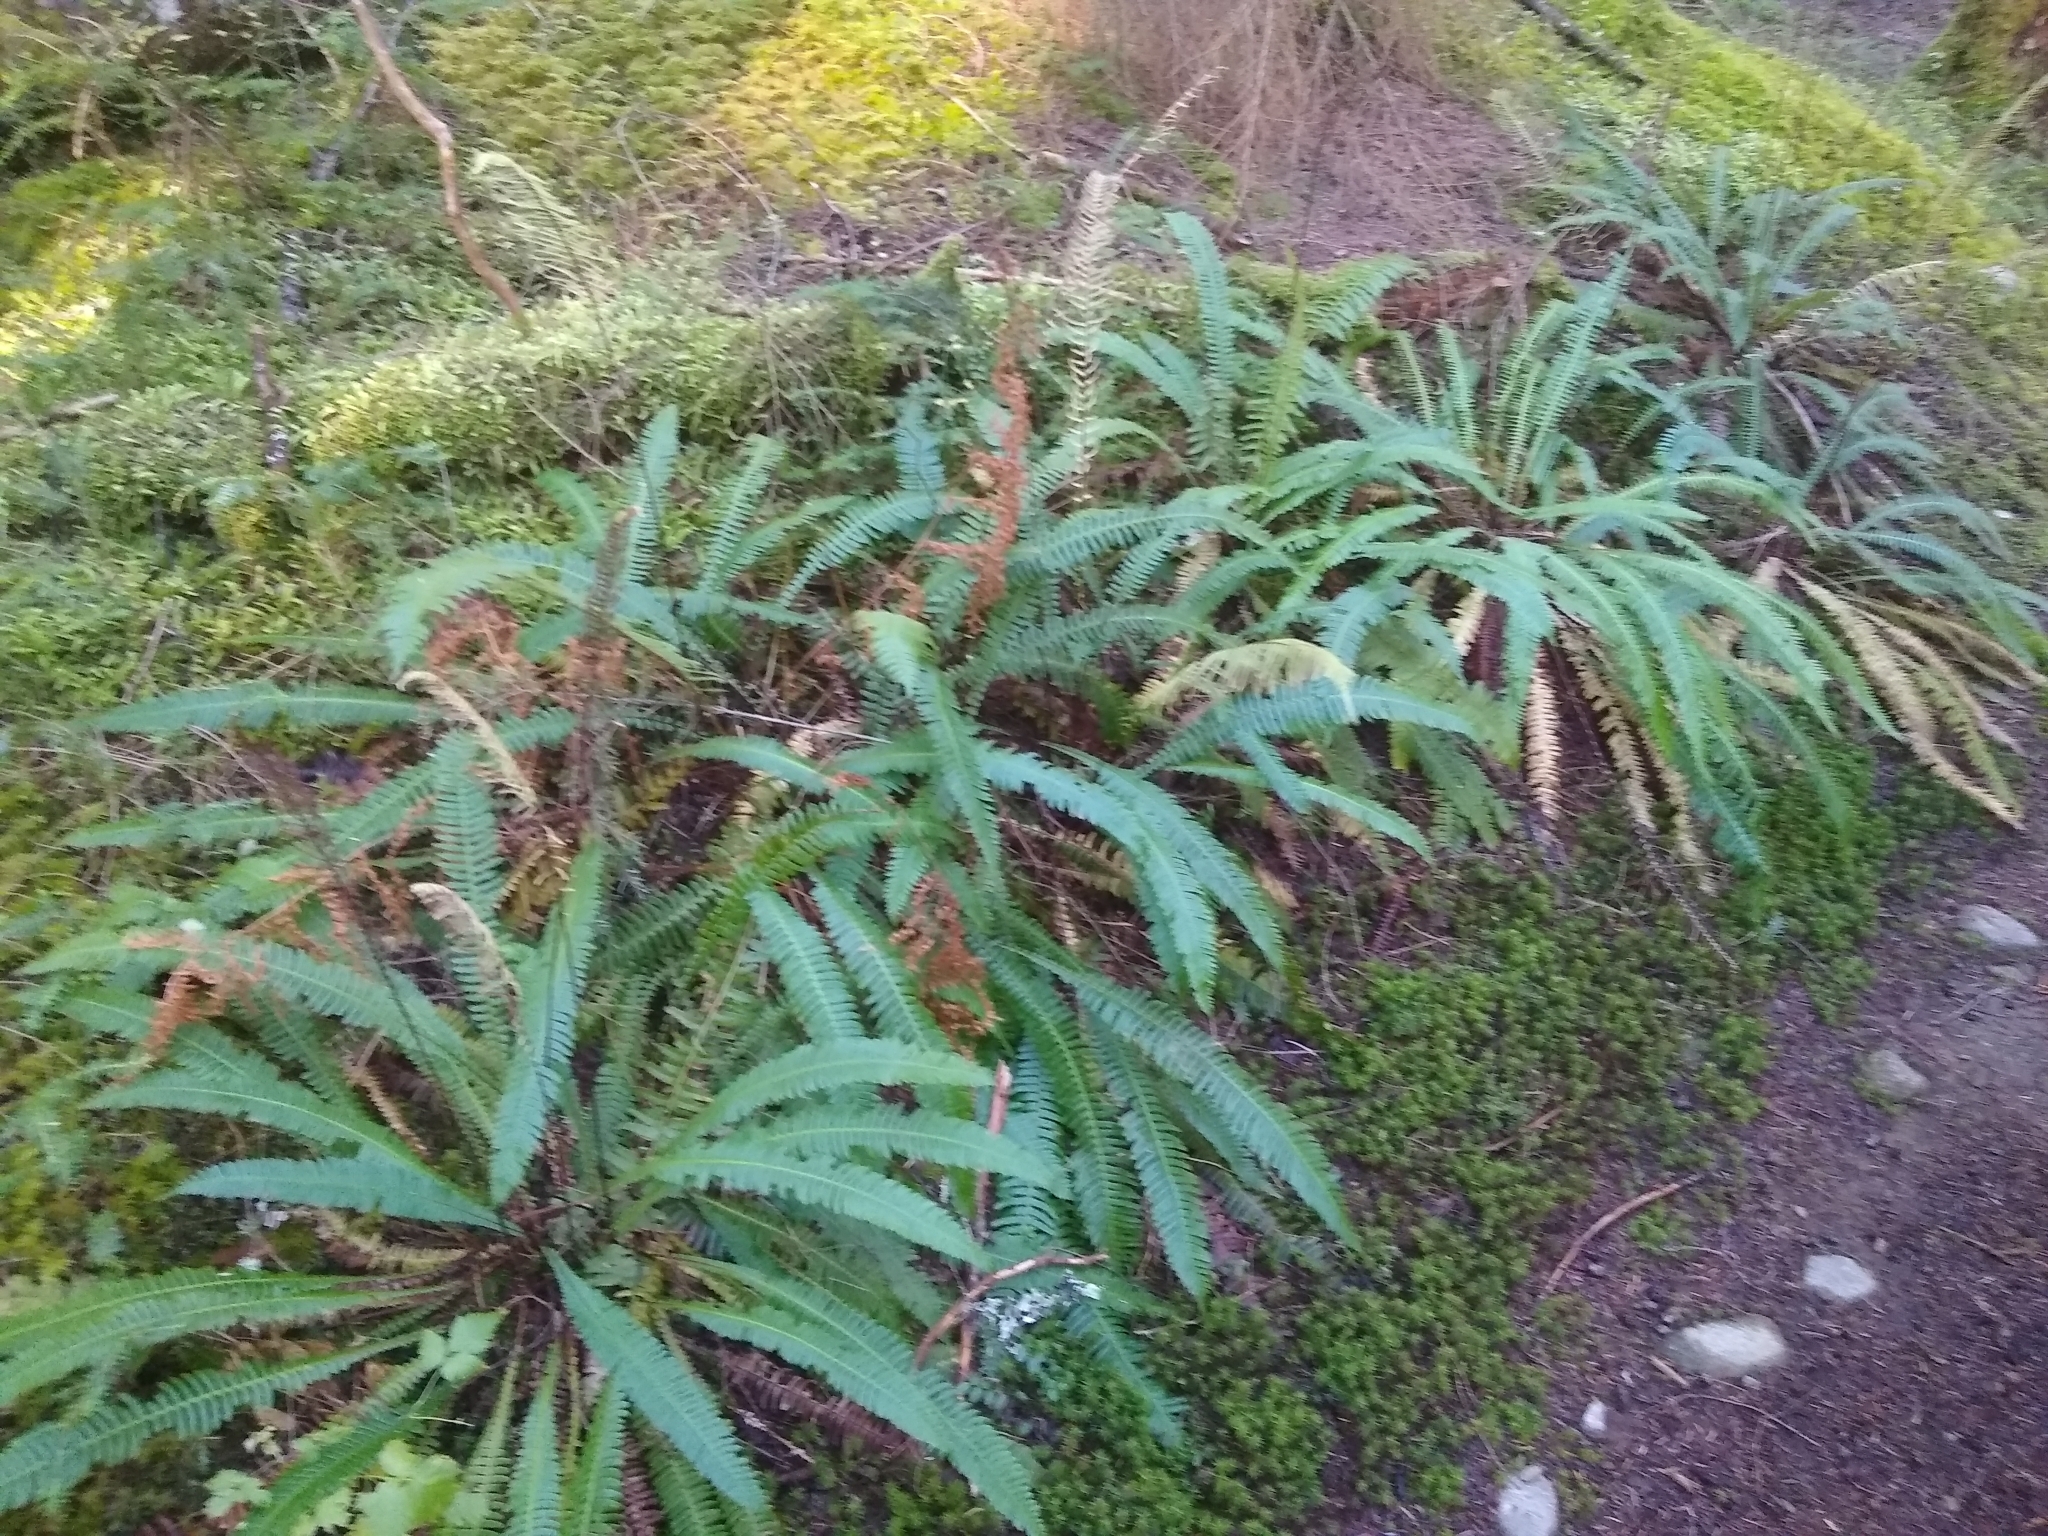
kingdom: Plantae
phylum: Tracheophyta
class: Polypodiopsida
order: Polypodiales
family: Blechnaceae
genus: Struthiopteris
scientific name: Struthiopteris spicant
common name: Deer fern
